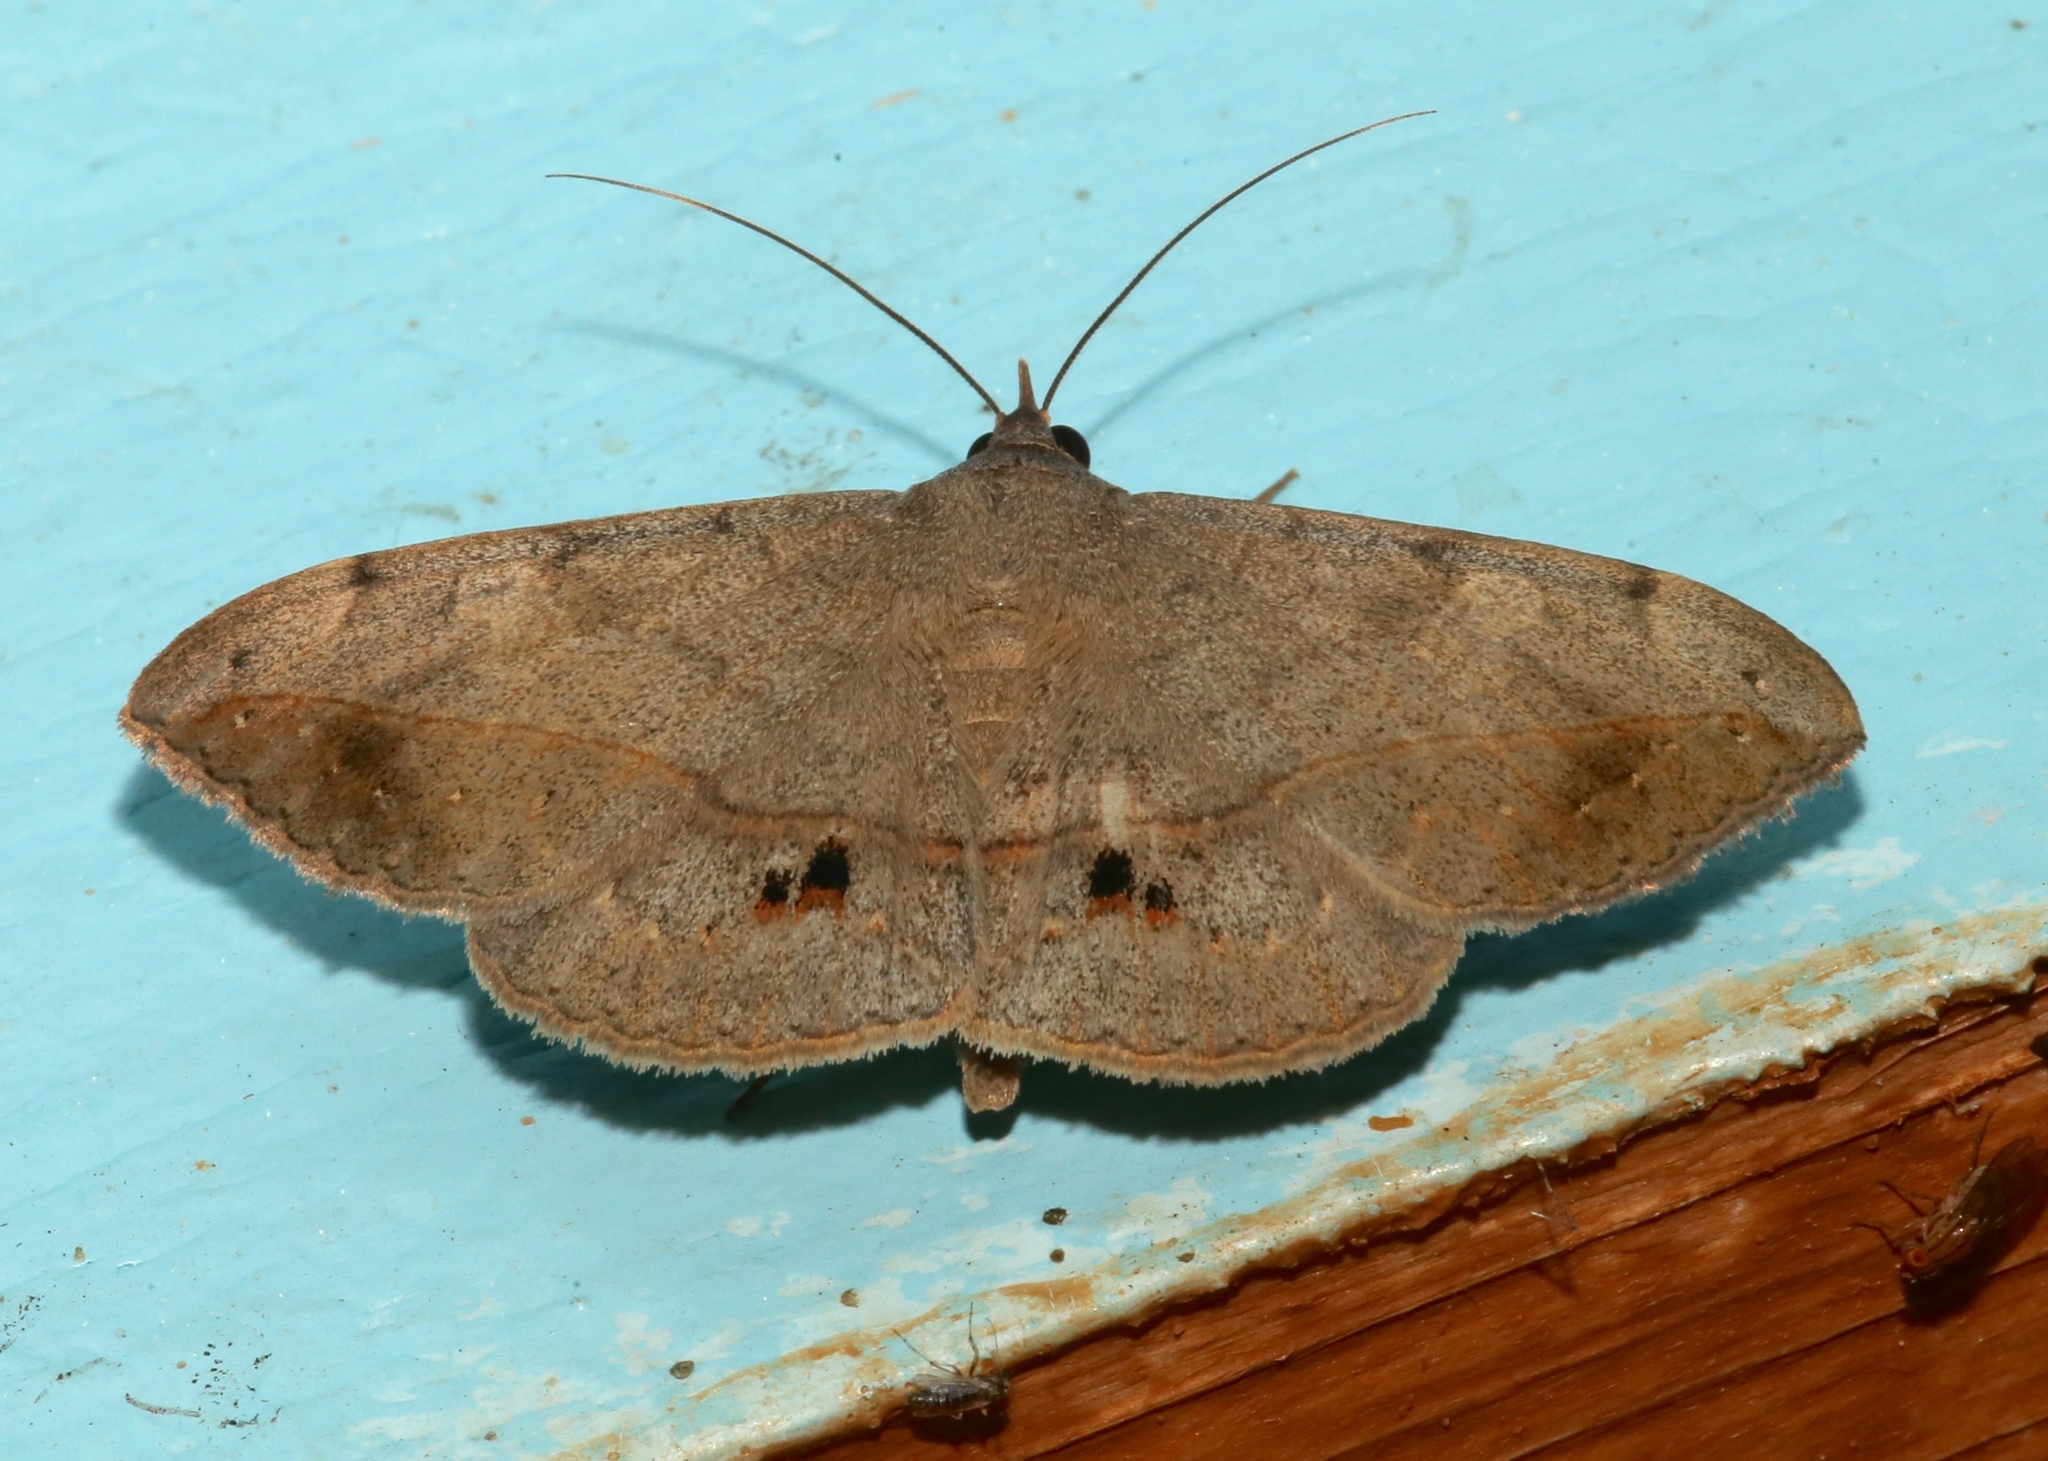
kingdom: Animalia
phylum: Arthropoda
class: Insecta
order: Lepidoptera
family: Erebidae
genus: Anticarsia
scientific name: Anticarsia gemmatalis
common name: Cutworm moth
